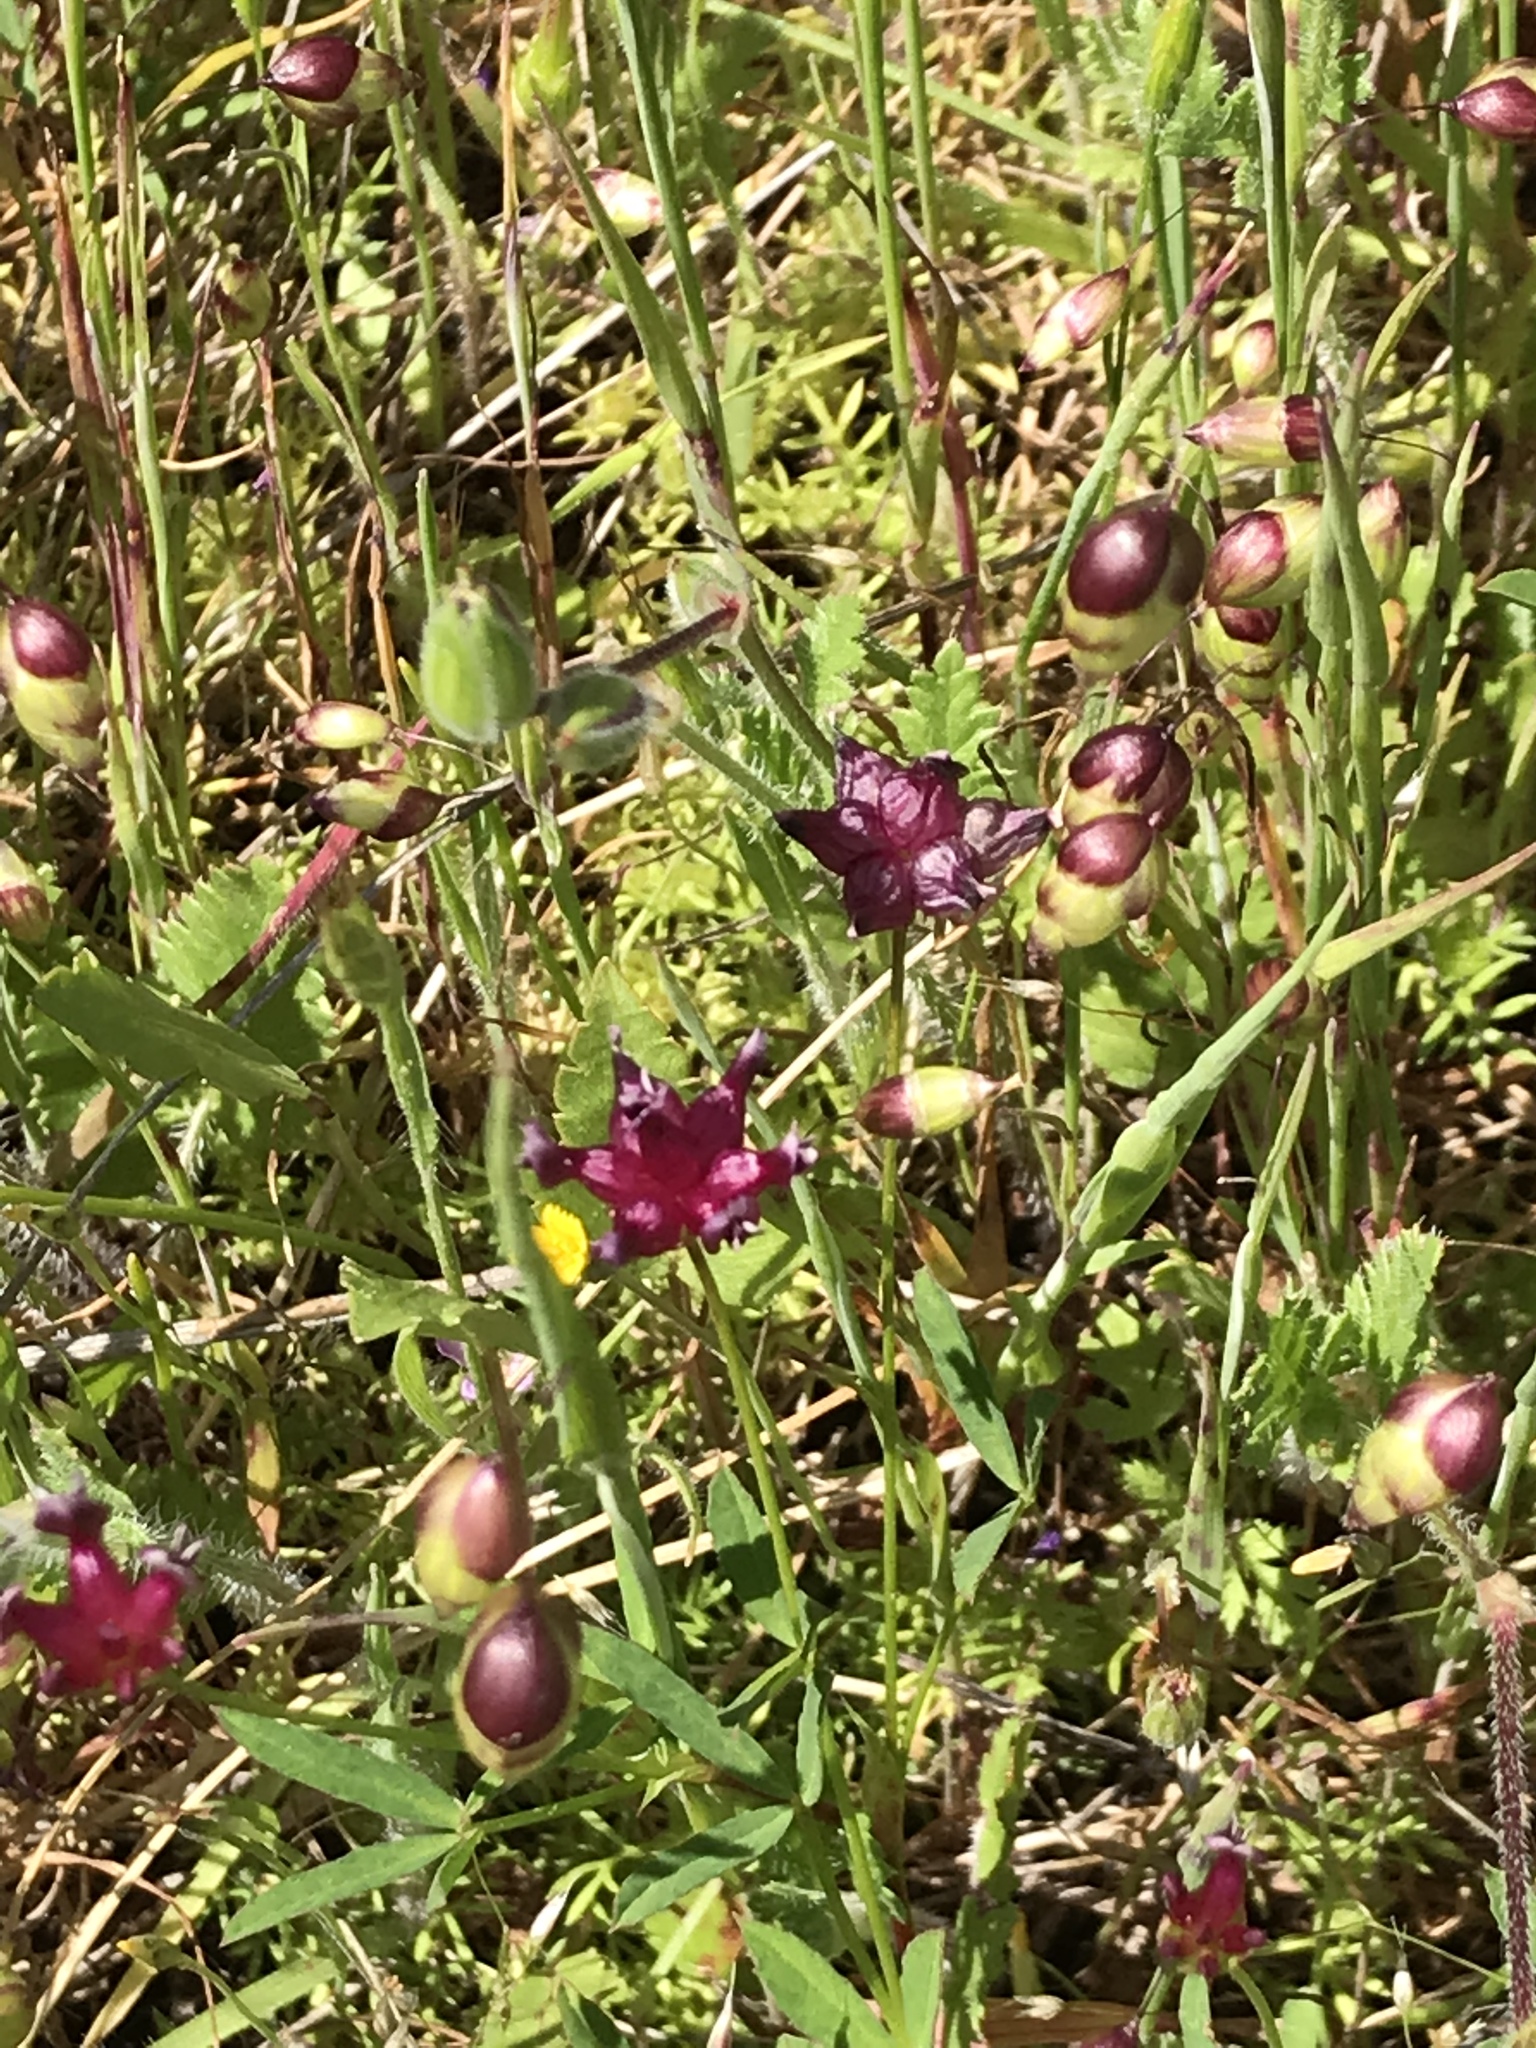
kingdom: Plantae
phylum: Tracheophyta
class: Magnoliopsida
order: Fabales
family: Fabaceae
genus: Trifolium
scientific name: Trifolium depauperatum
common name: Poverty clover
